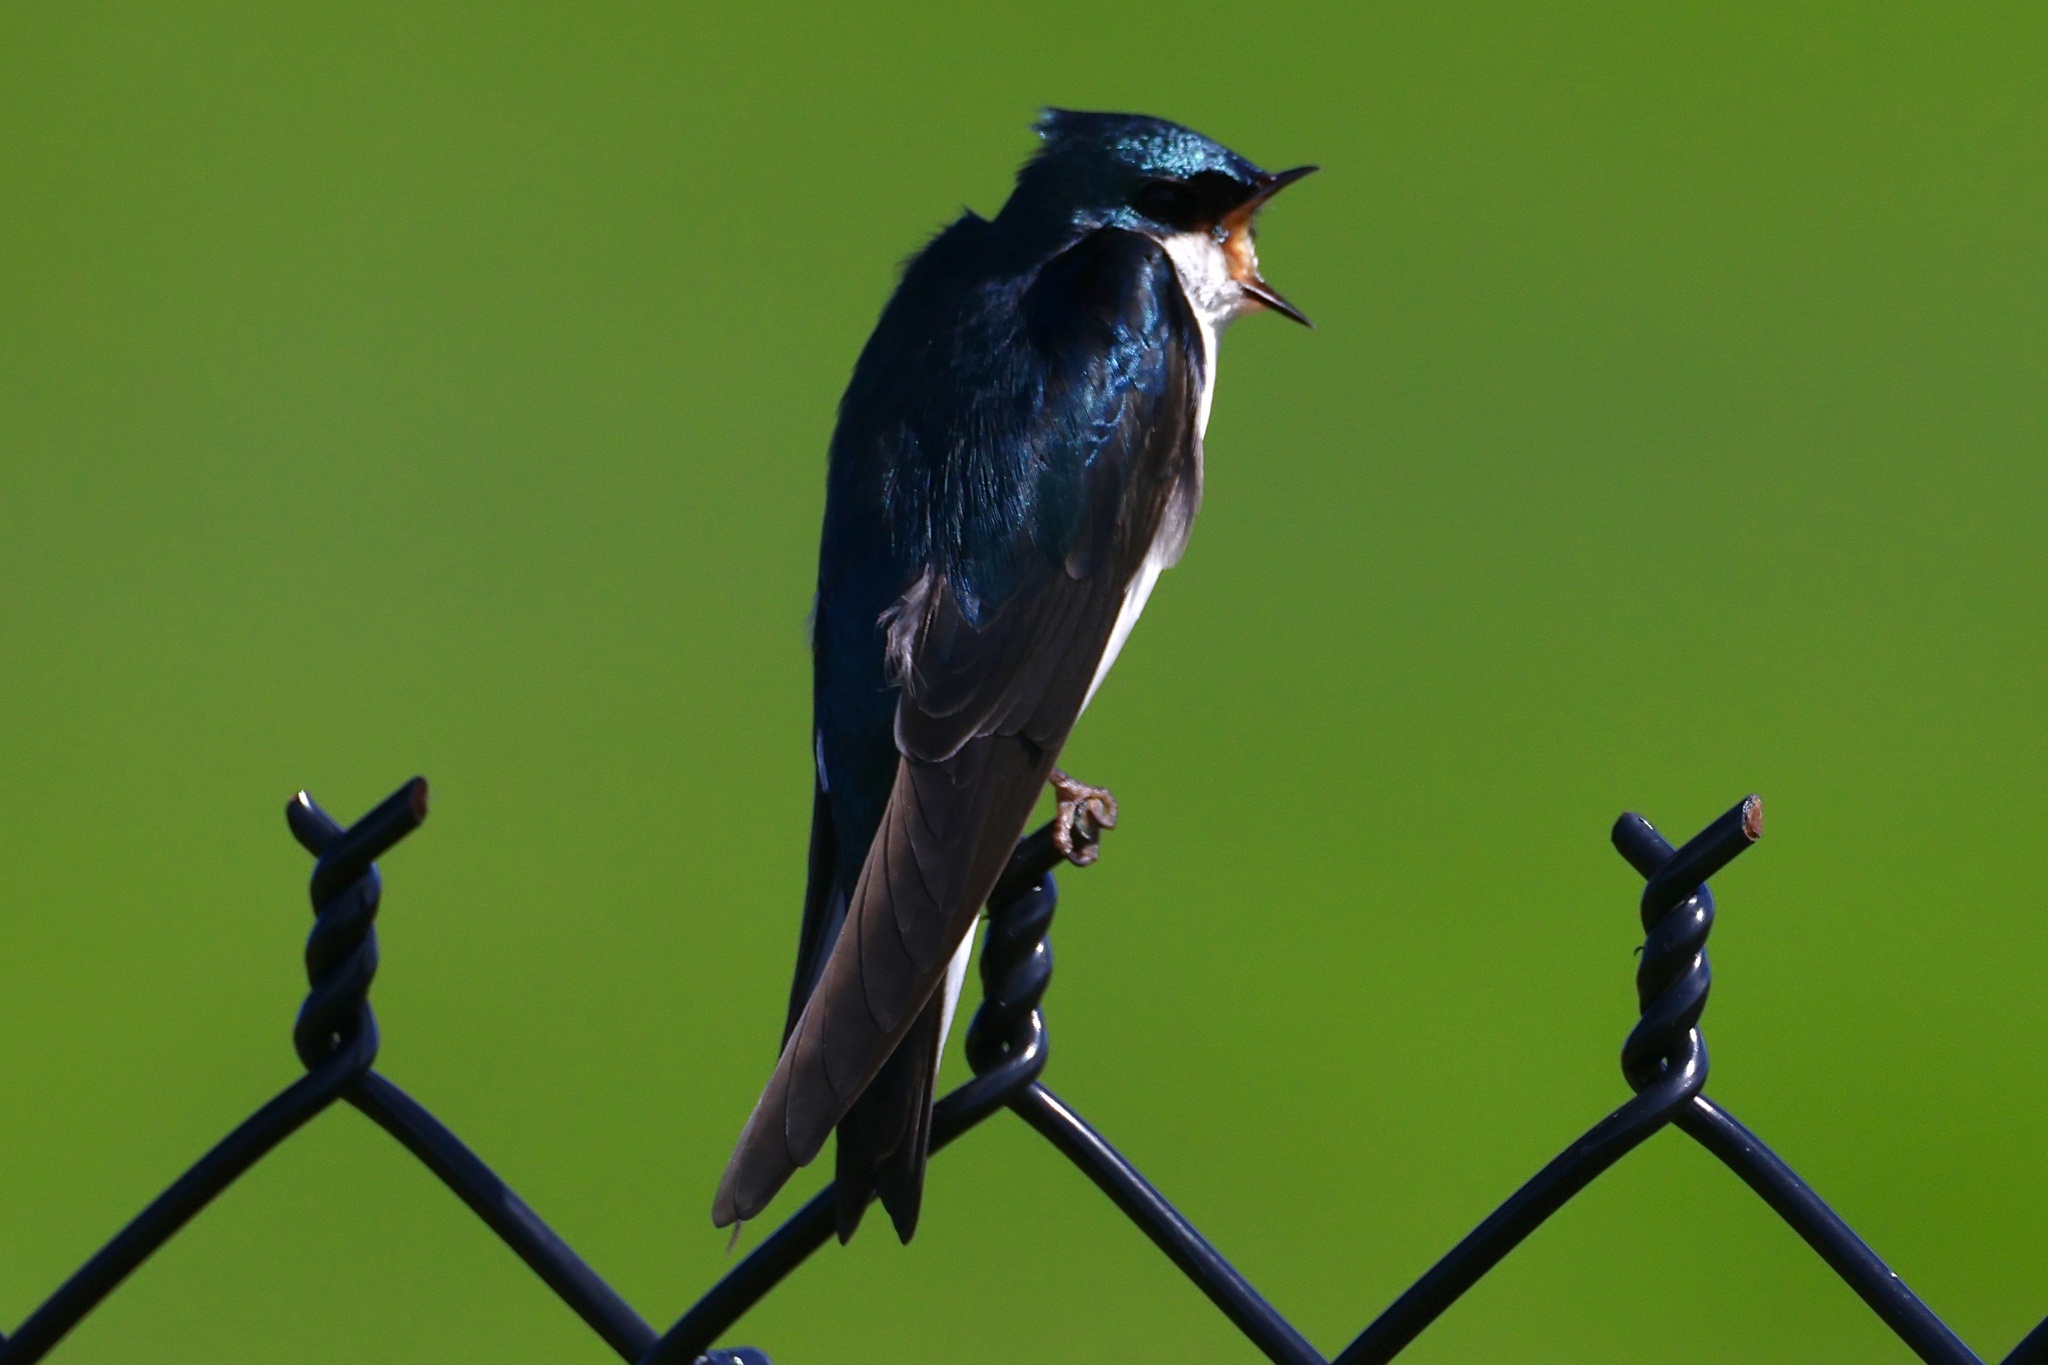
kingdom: Animalia
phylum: Chordata
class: Aves
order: Passeriformes
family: Hirundinidae
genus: Tachycineta
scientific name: Tachycineta bicolor
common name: Tree swallow
